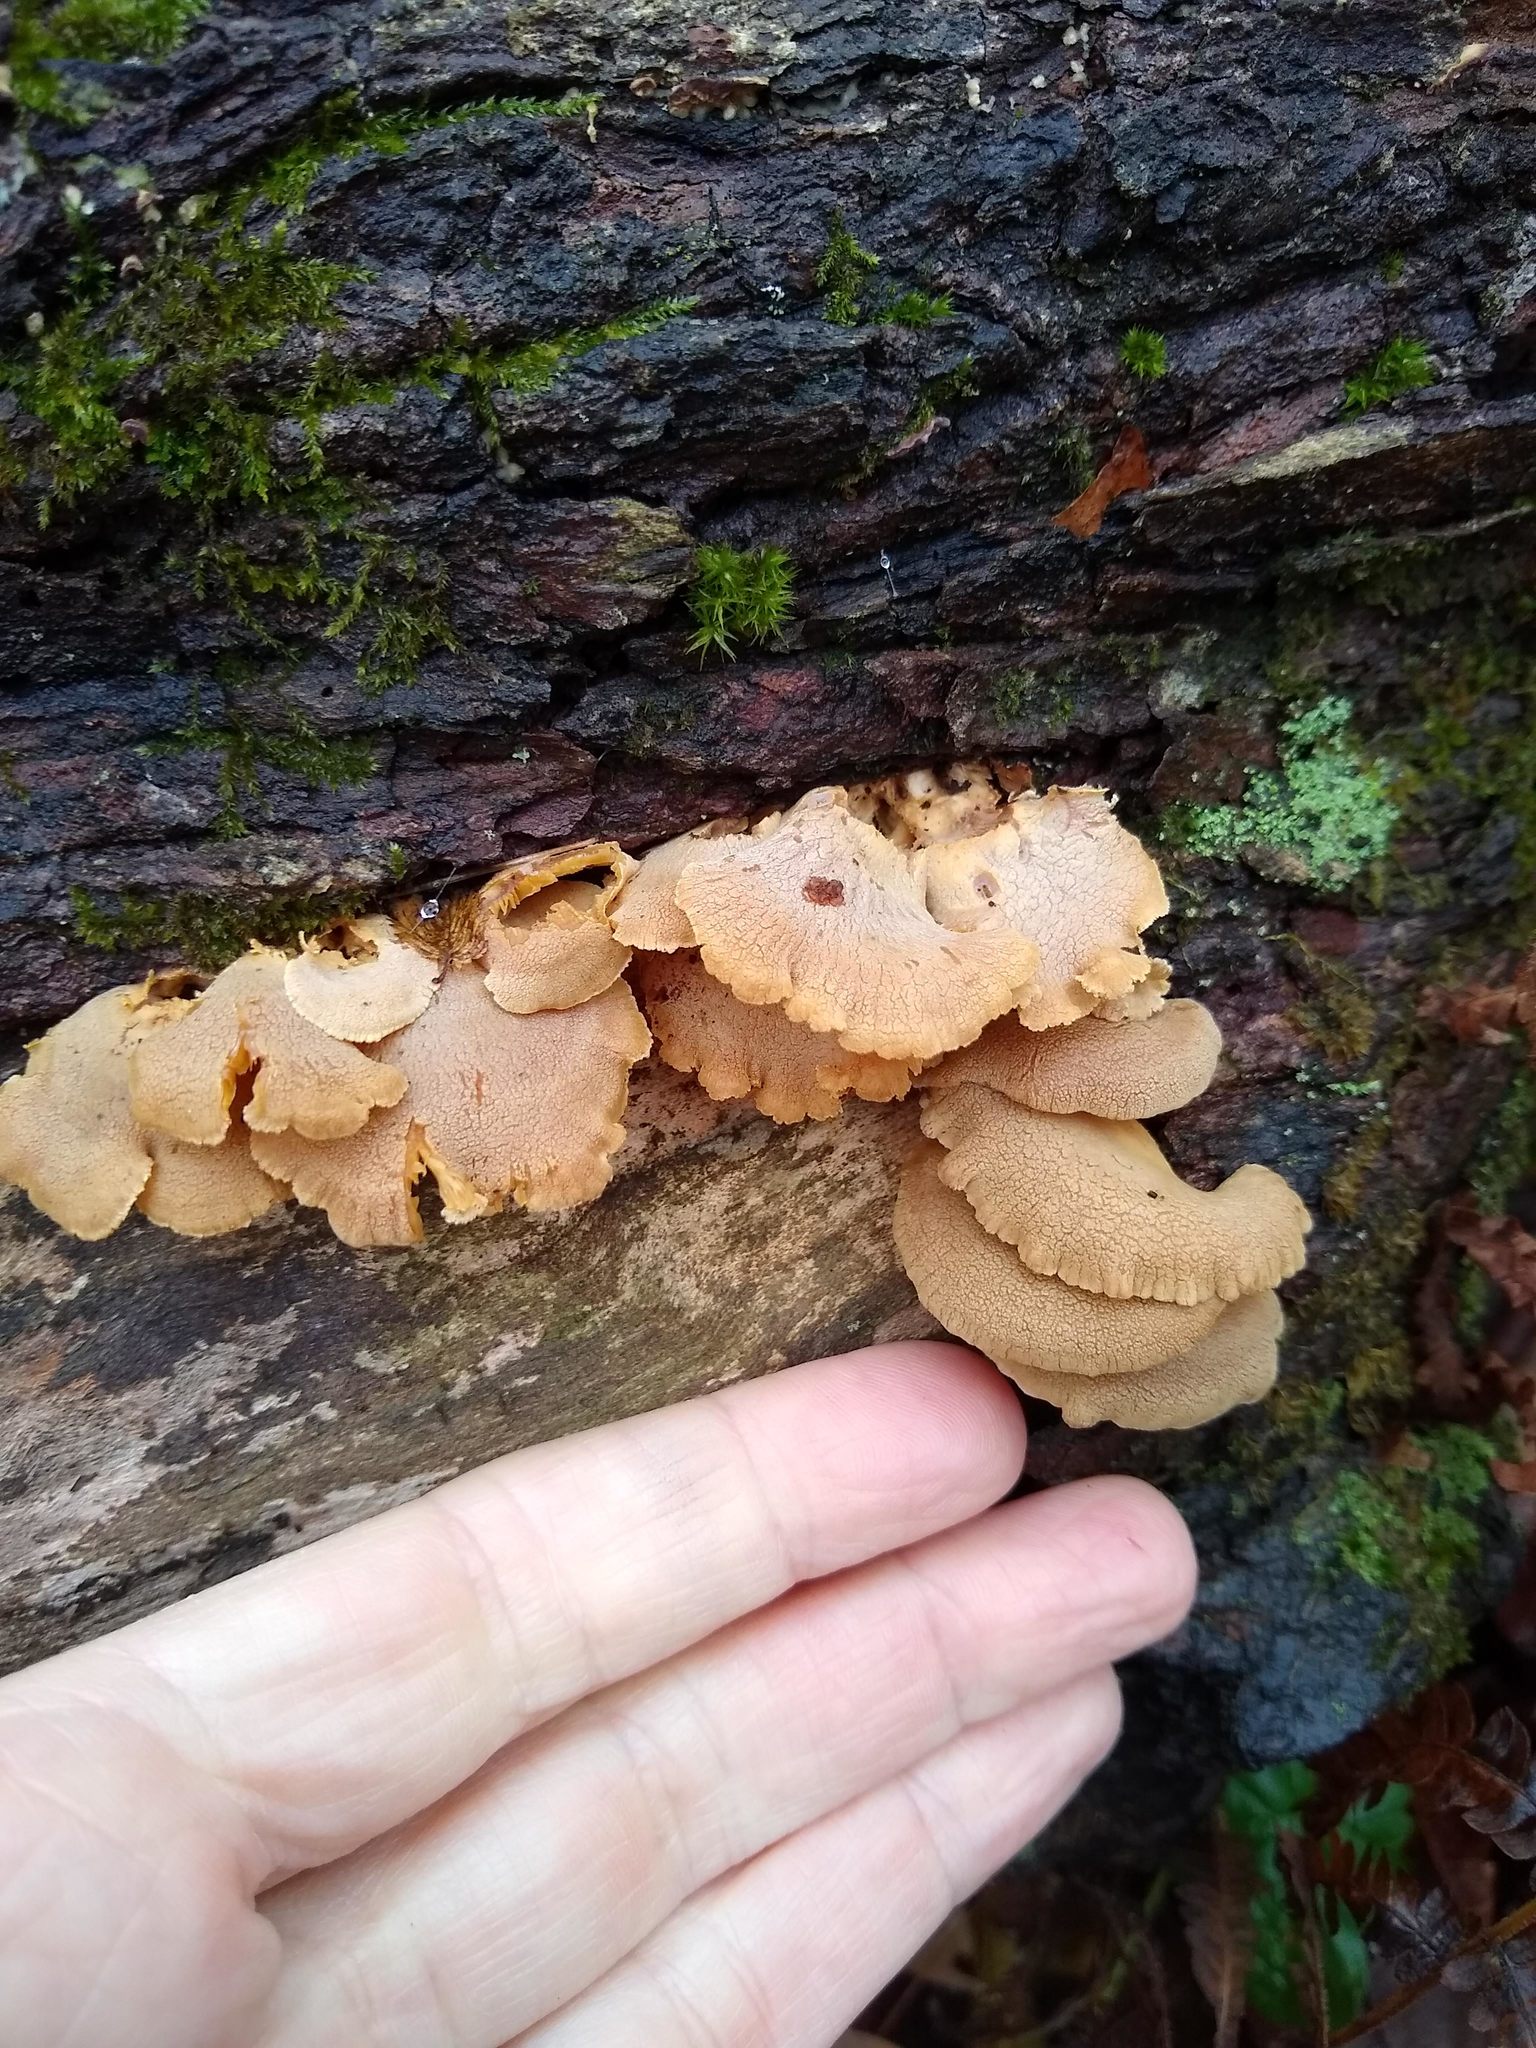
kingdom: Fungi
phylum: Basidiomycota
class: Agaricomycetes
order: Agaricales
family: Mycenaceae
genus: Panellus
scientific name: Panellus stipticus
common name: Bitter oysterling
